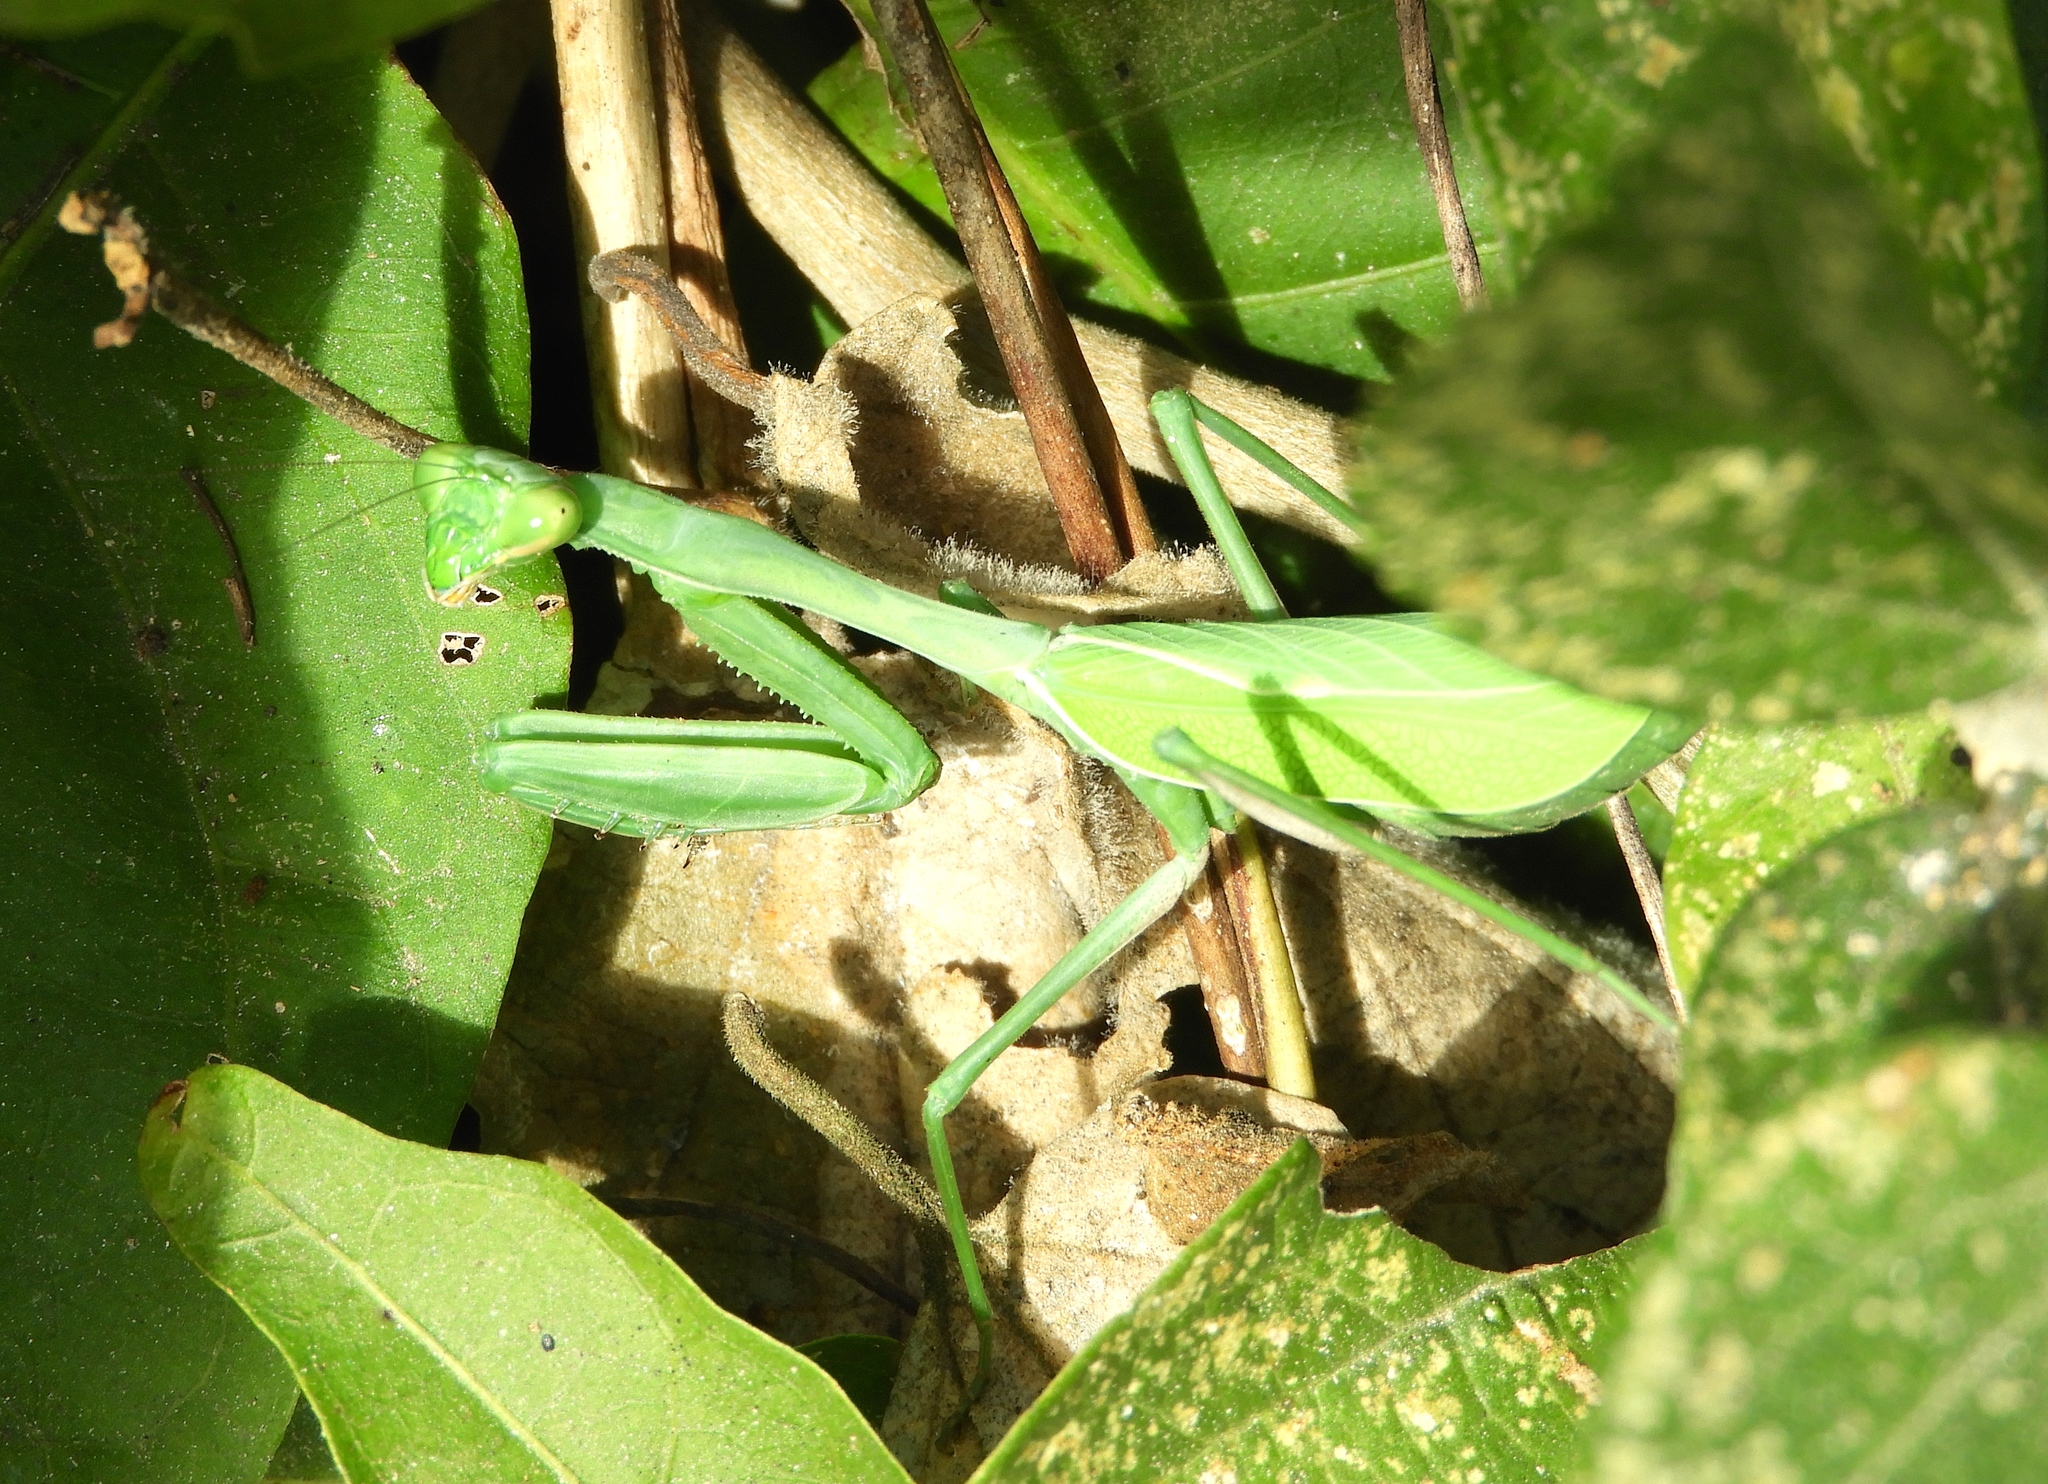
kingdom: Animalia
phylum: Arthropoda
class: Insecta
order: Mantodea
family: Mantidae
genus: Stagmomantis
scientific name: Stagmomantis
